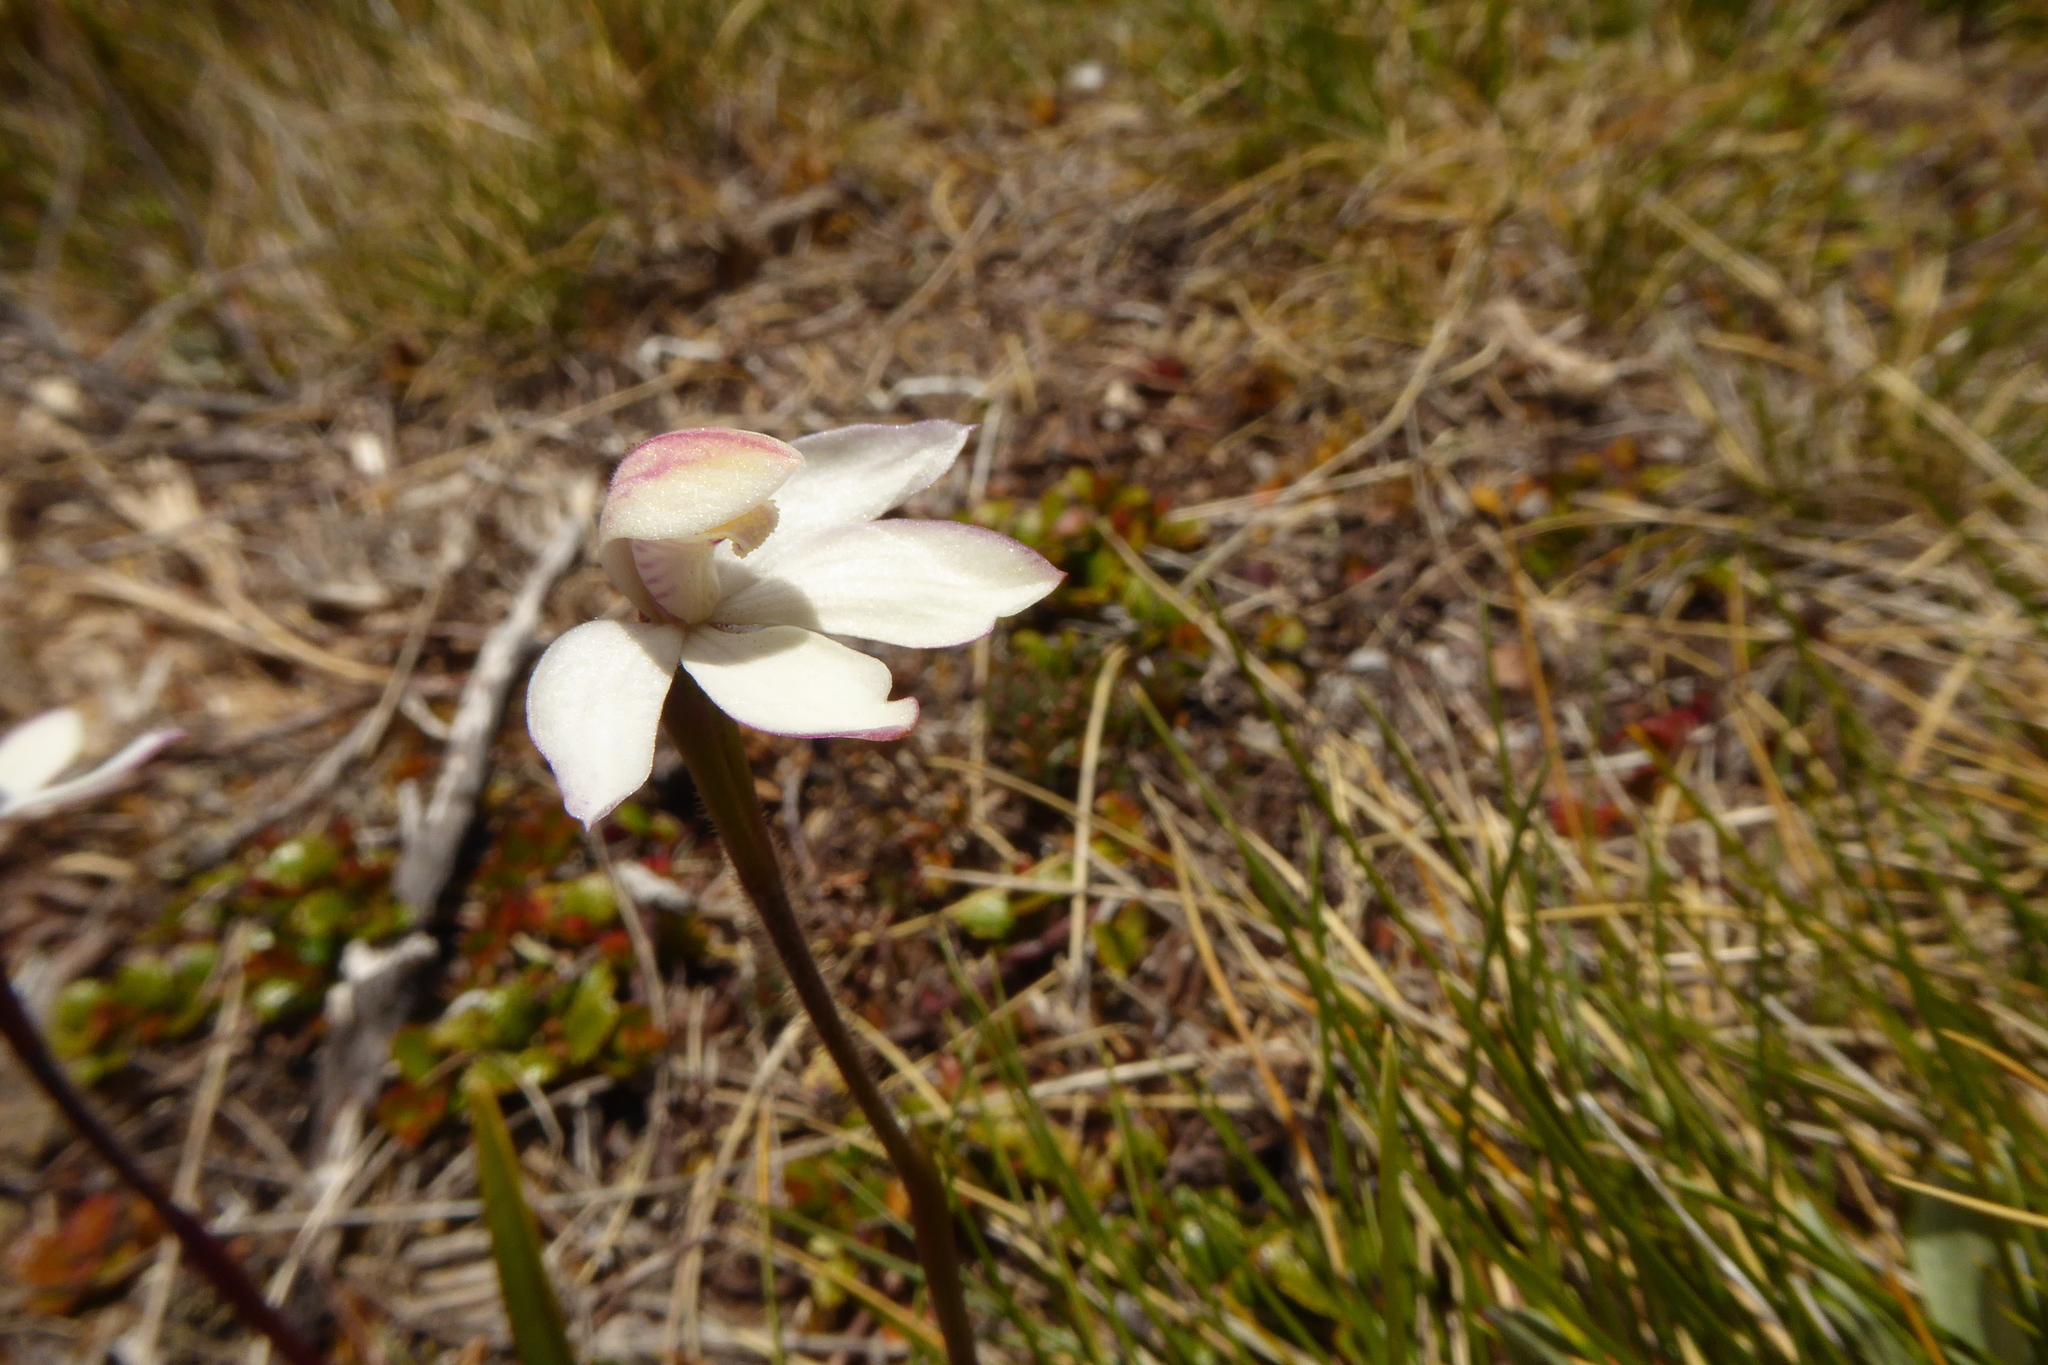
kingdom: Plantae
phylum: Tracheophyta
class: Liliopsida
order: Asparagales
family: Orchidaceae
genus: Caladenia
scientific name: Caladenia lyallii
